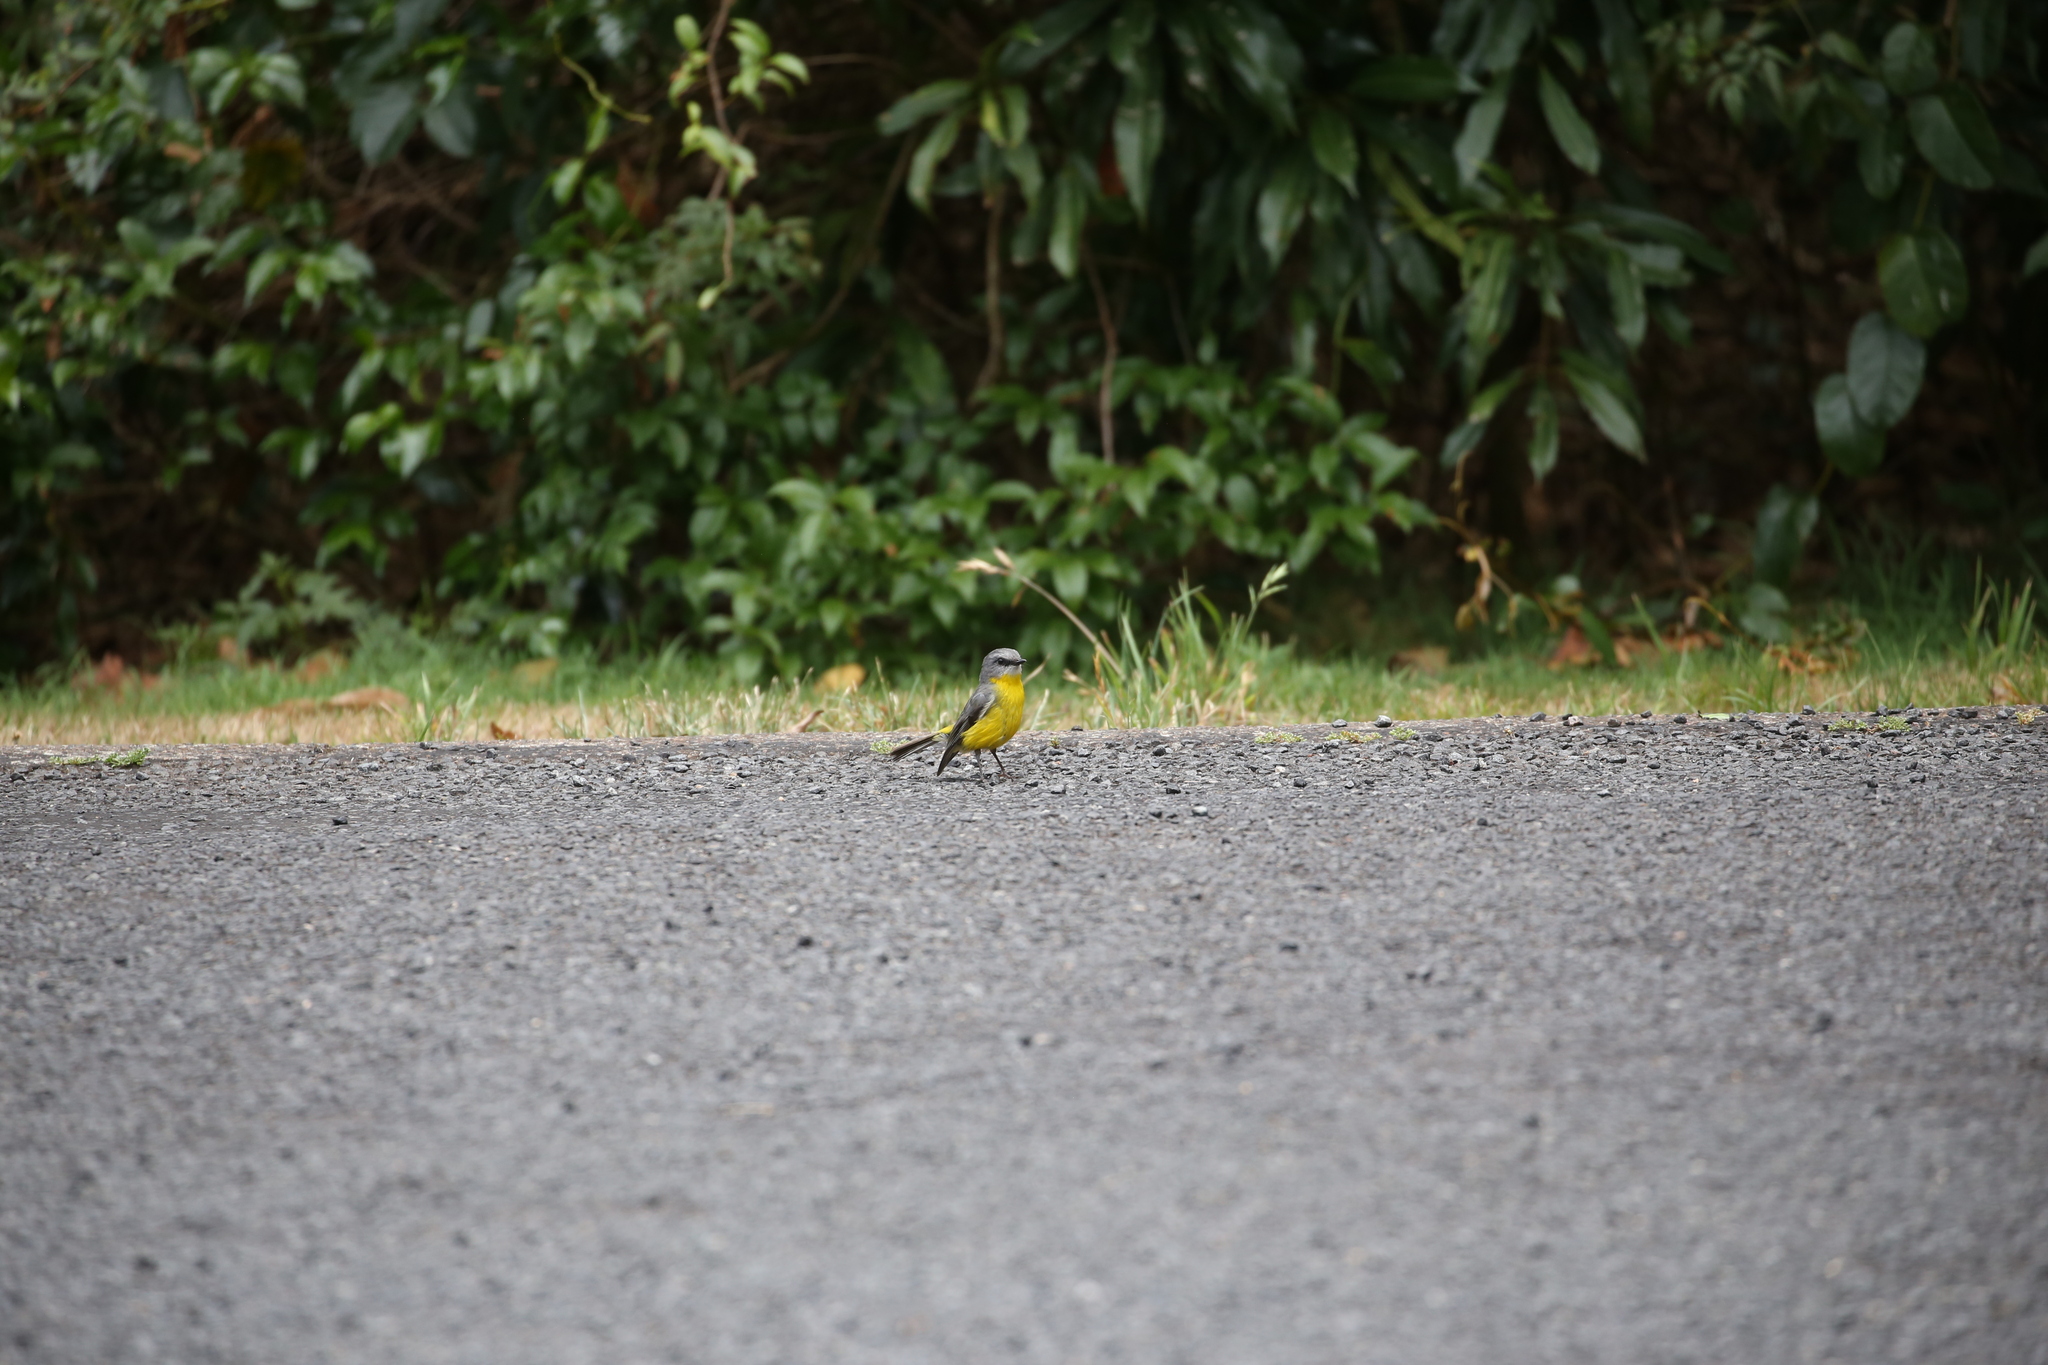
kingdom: Animalia
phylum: Chordata
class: Aves
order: Passeriformes
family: Petroicidae
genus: Eopsaltria
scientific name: Eopsaltria australis
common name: Eastern yellow robin
